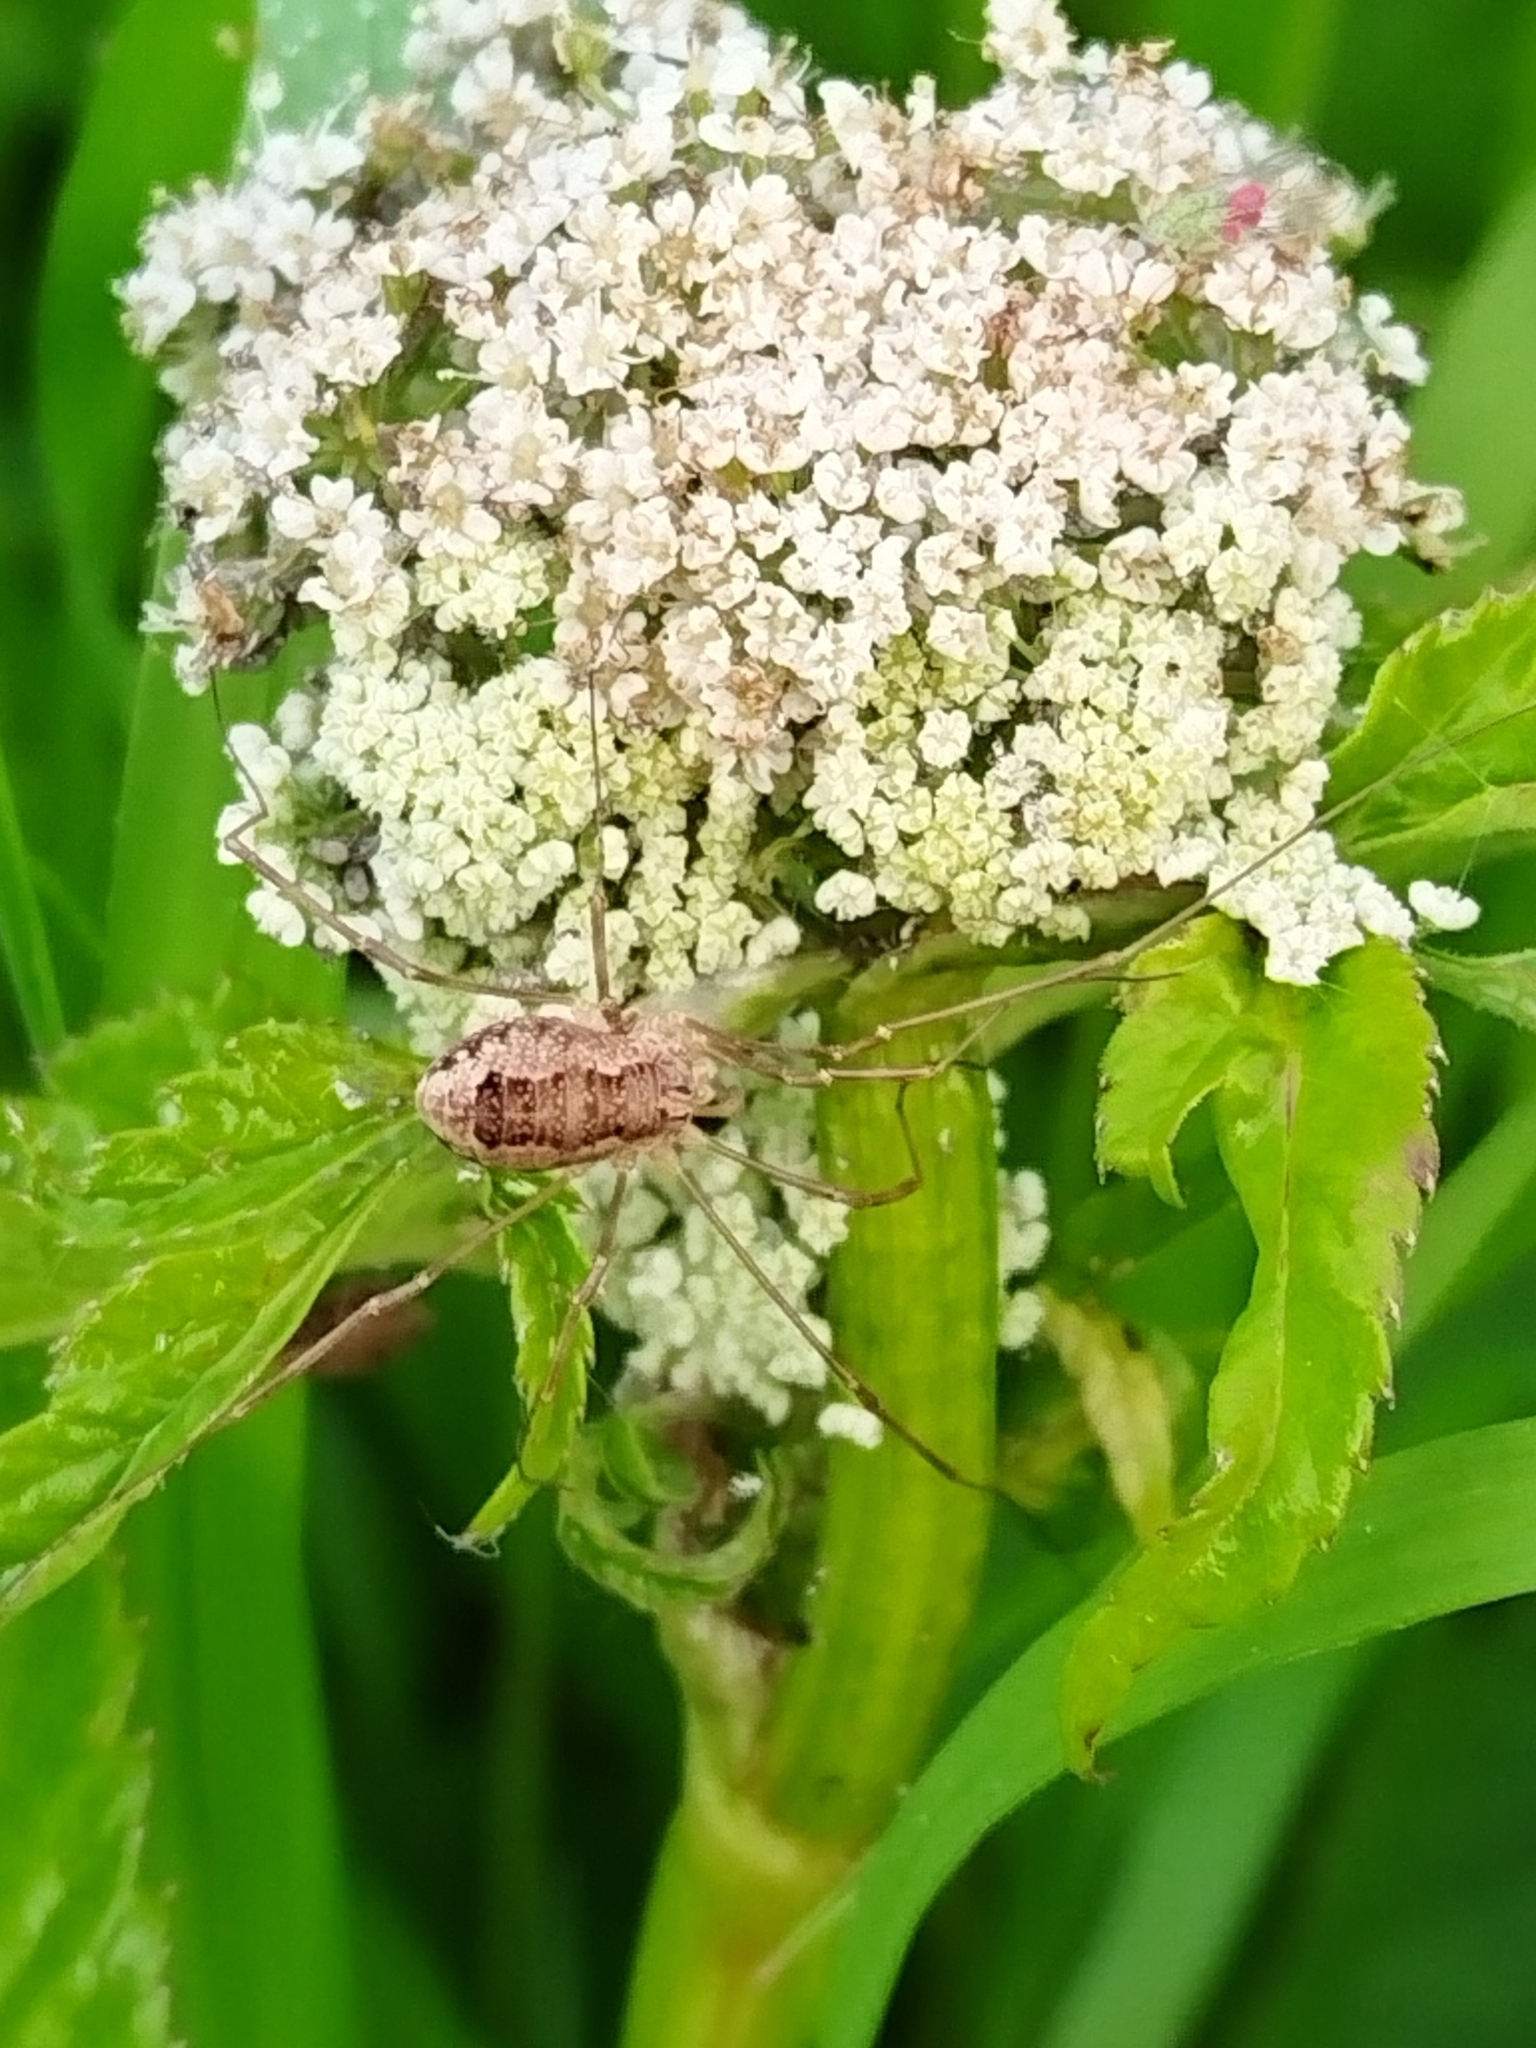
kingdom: Animalia
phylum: Arthropoda
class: Arachnida
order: Opiliones
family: Phalangiidae
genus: Rilaena
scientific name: Rilaena triangularis
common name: Spring harvestman
